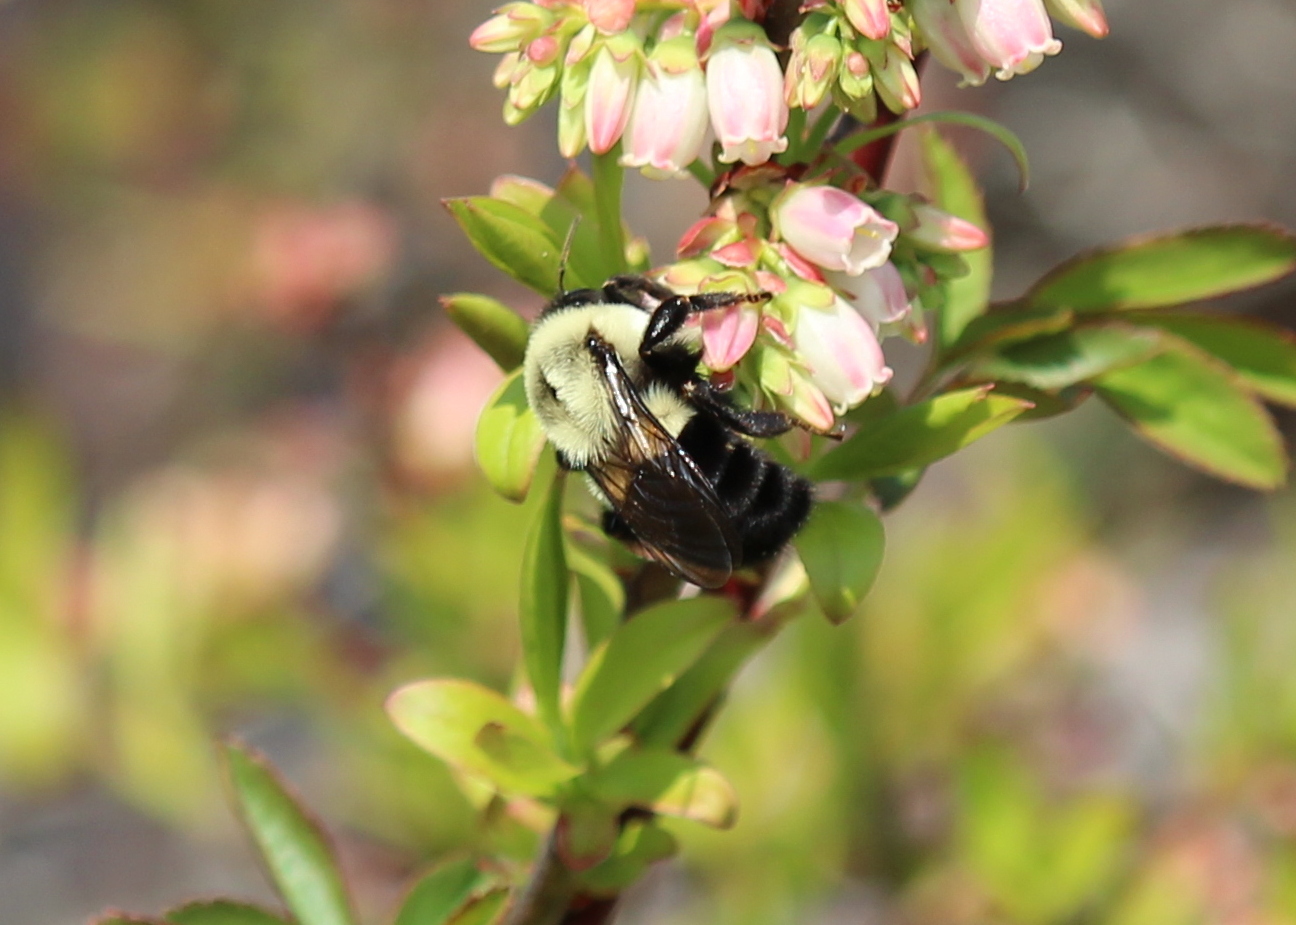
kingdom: Animalia
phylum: Arthropoda
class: Insecta
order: Hymenoptera
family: Apidae
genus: Bombus
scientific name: Bombus impatiens
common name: Common eastern bumble bee
